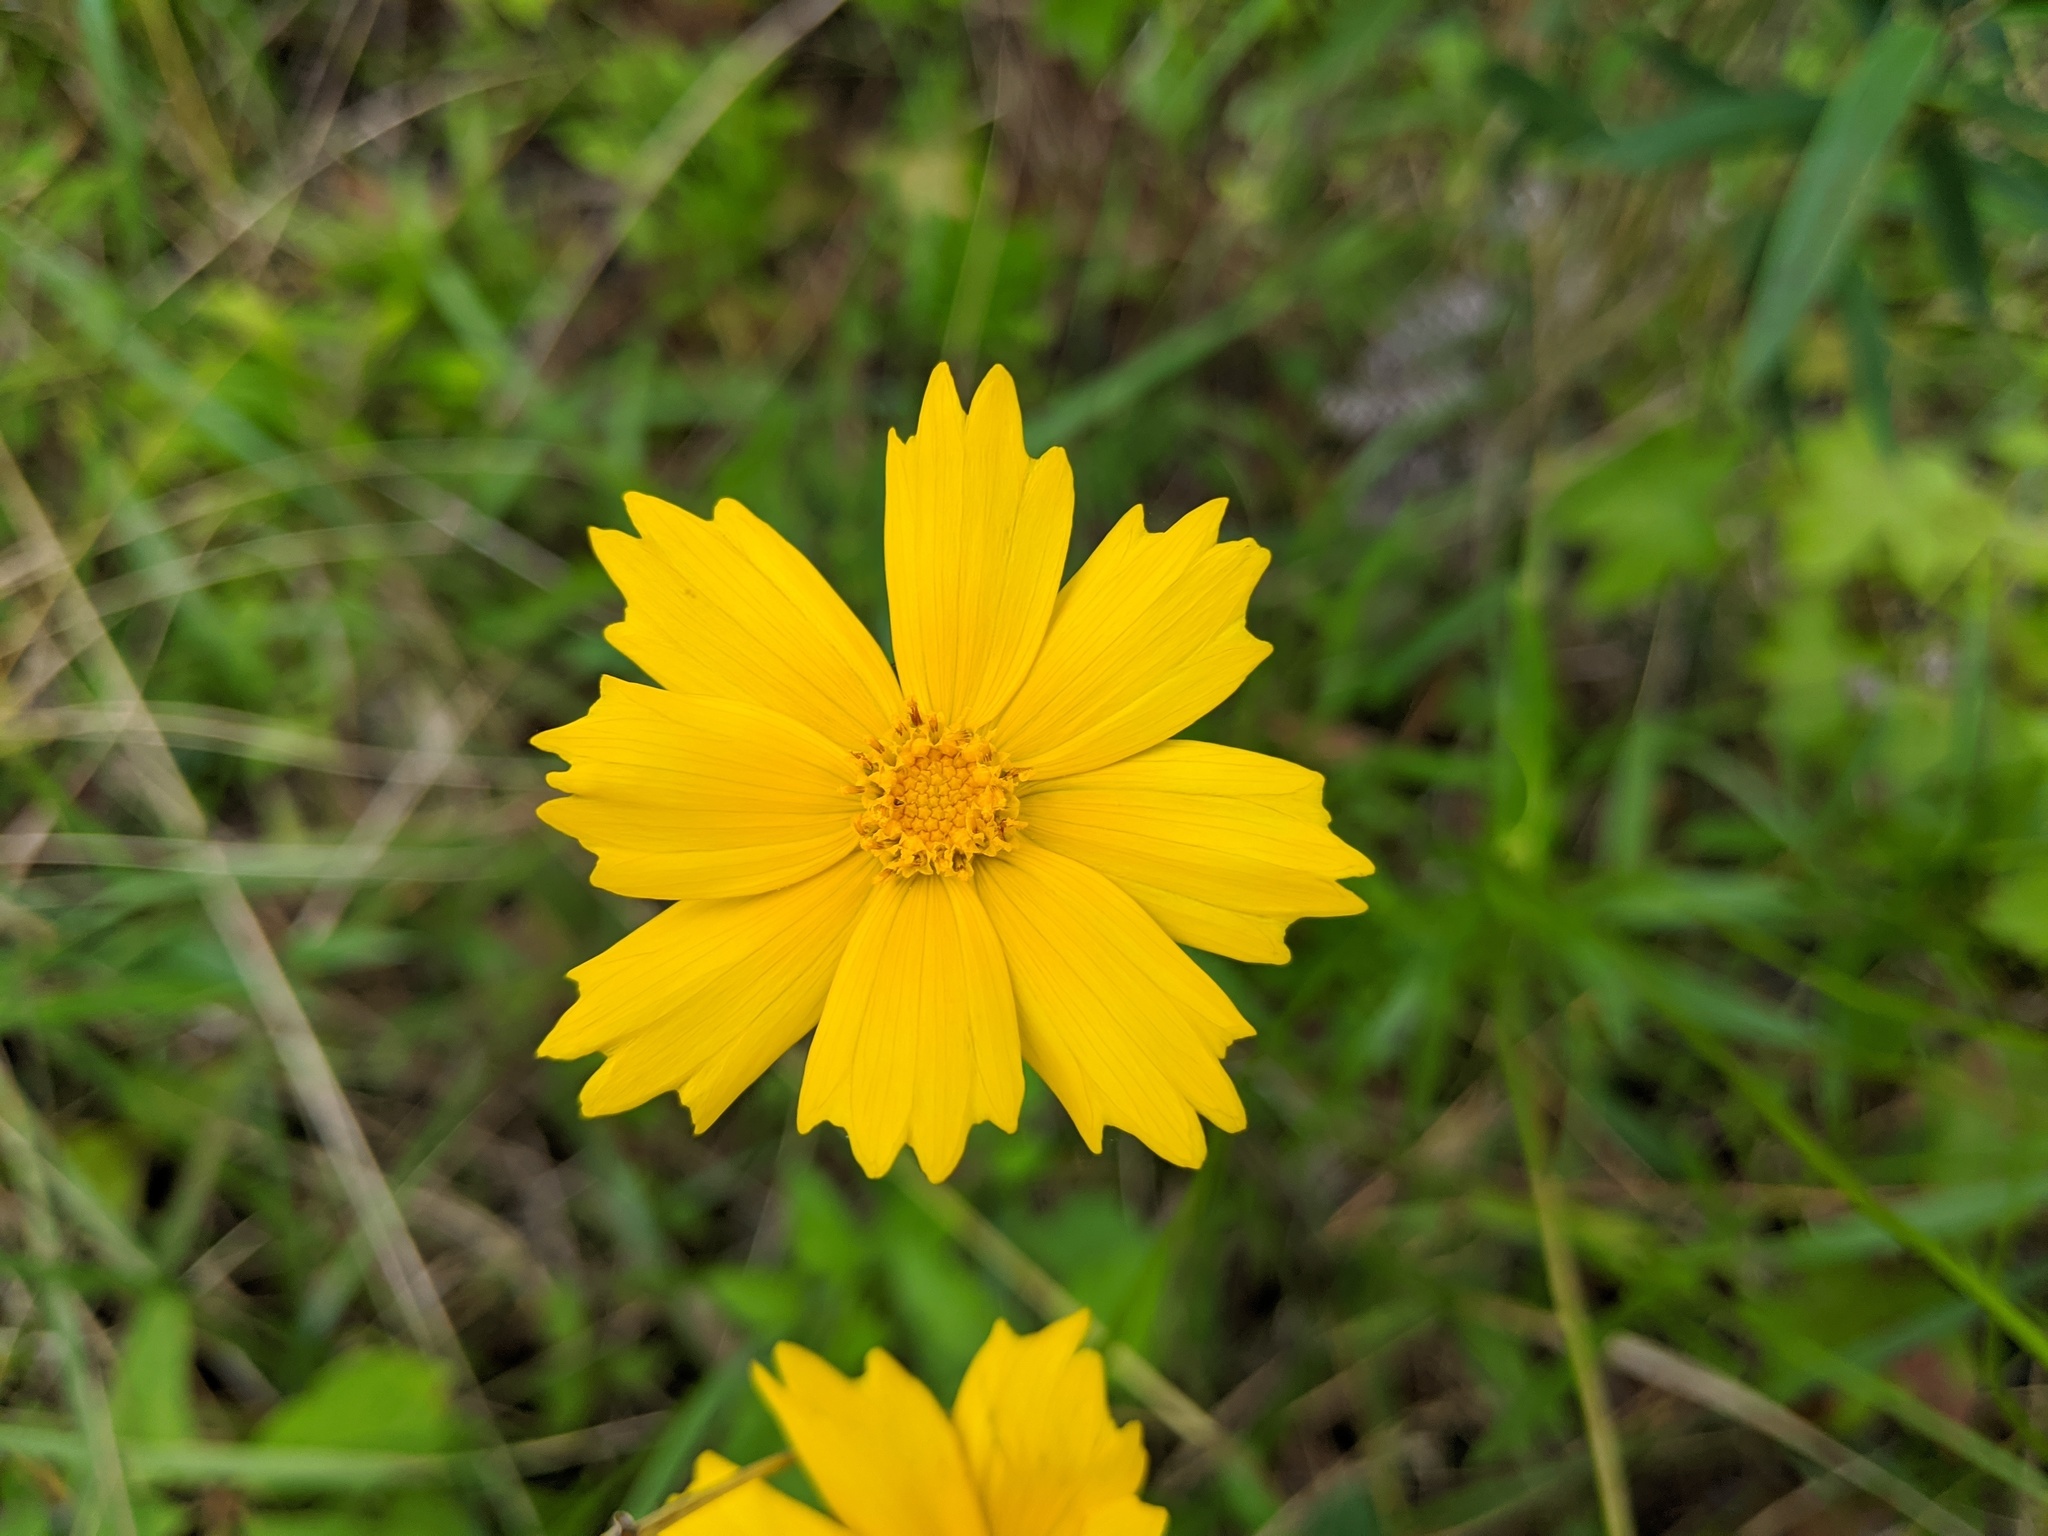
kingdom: Plantae
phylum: Tracheophyta
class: Magnoliopsida
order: Asterales
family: Asteraceae
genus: Coreopsis
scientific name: Coreopsis lanceolata
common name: Garden coreopsis
